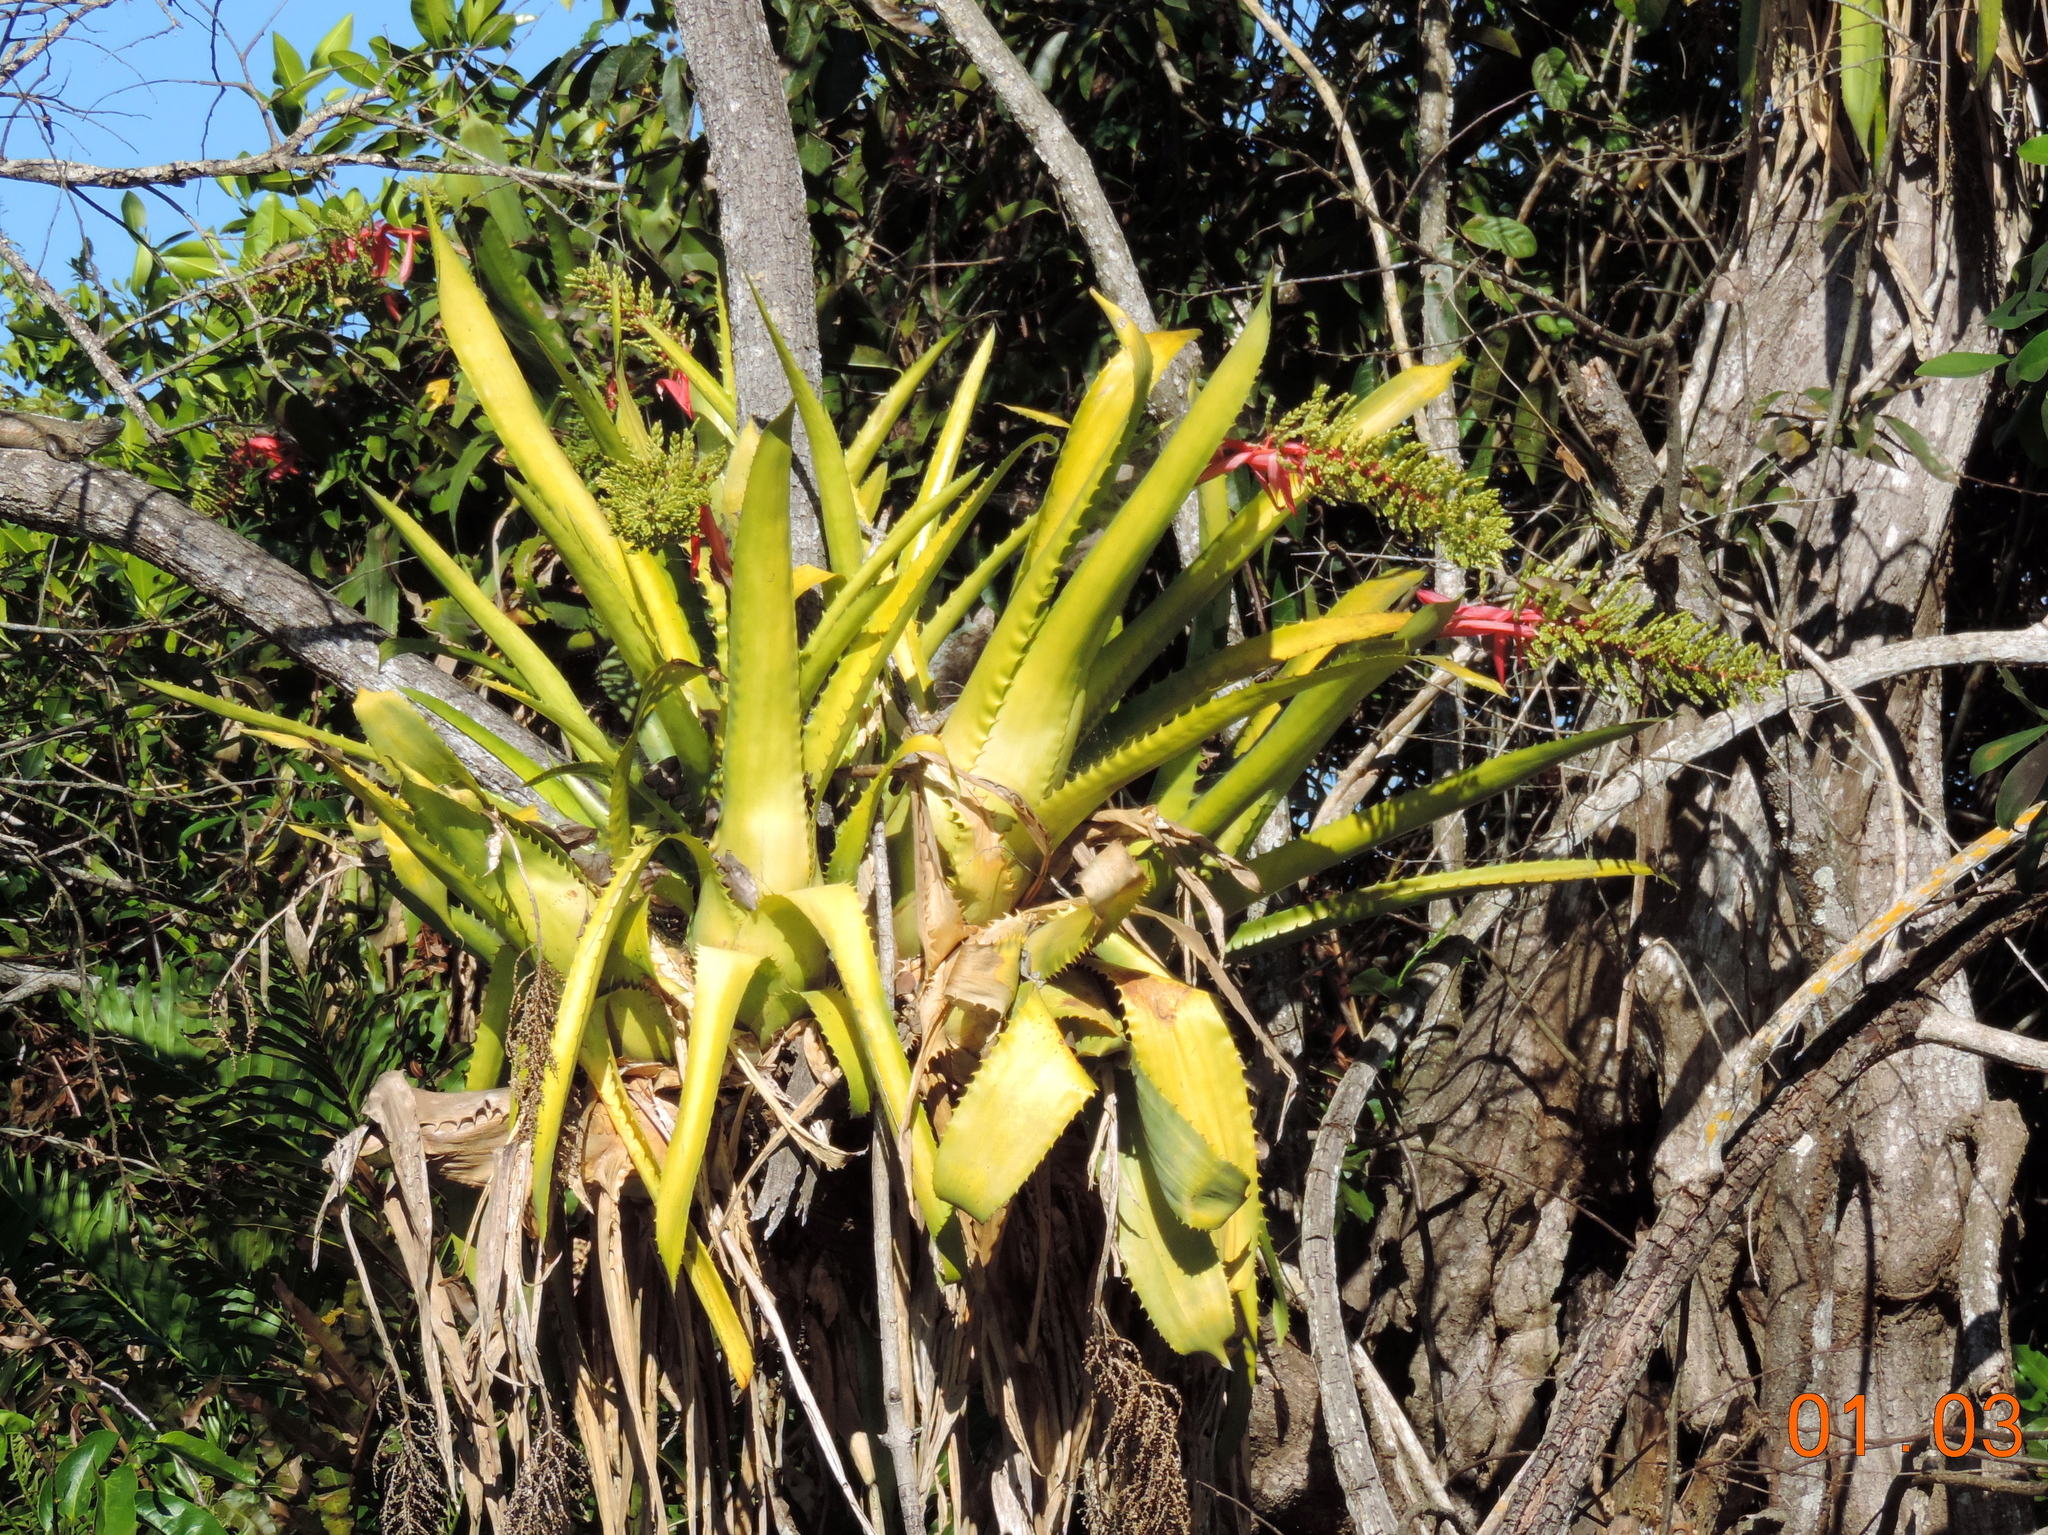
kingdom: Plantae
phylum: Tracheophyta
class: Liliopsida
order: Poales
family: Bromeliaceae
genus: Aechmea
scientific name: Aechmea bracteata
